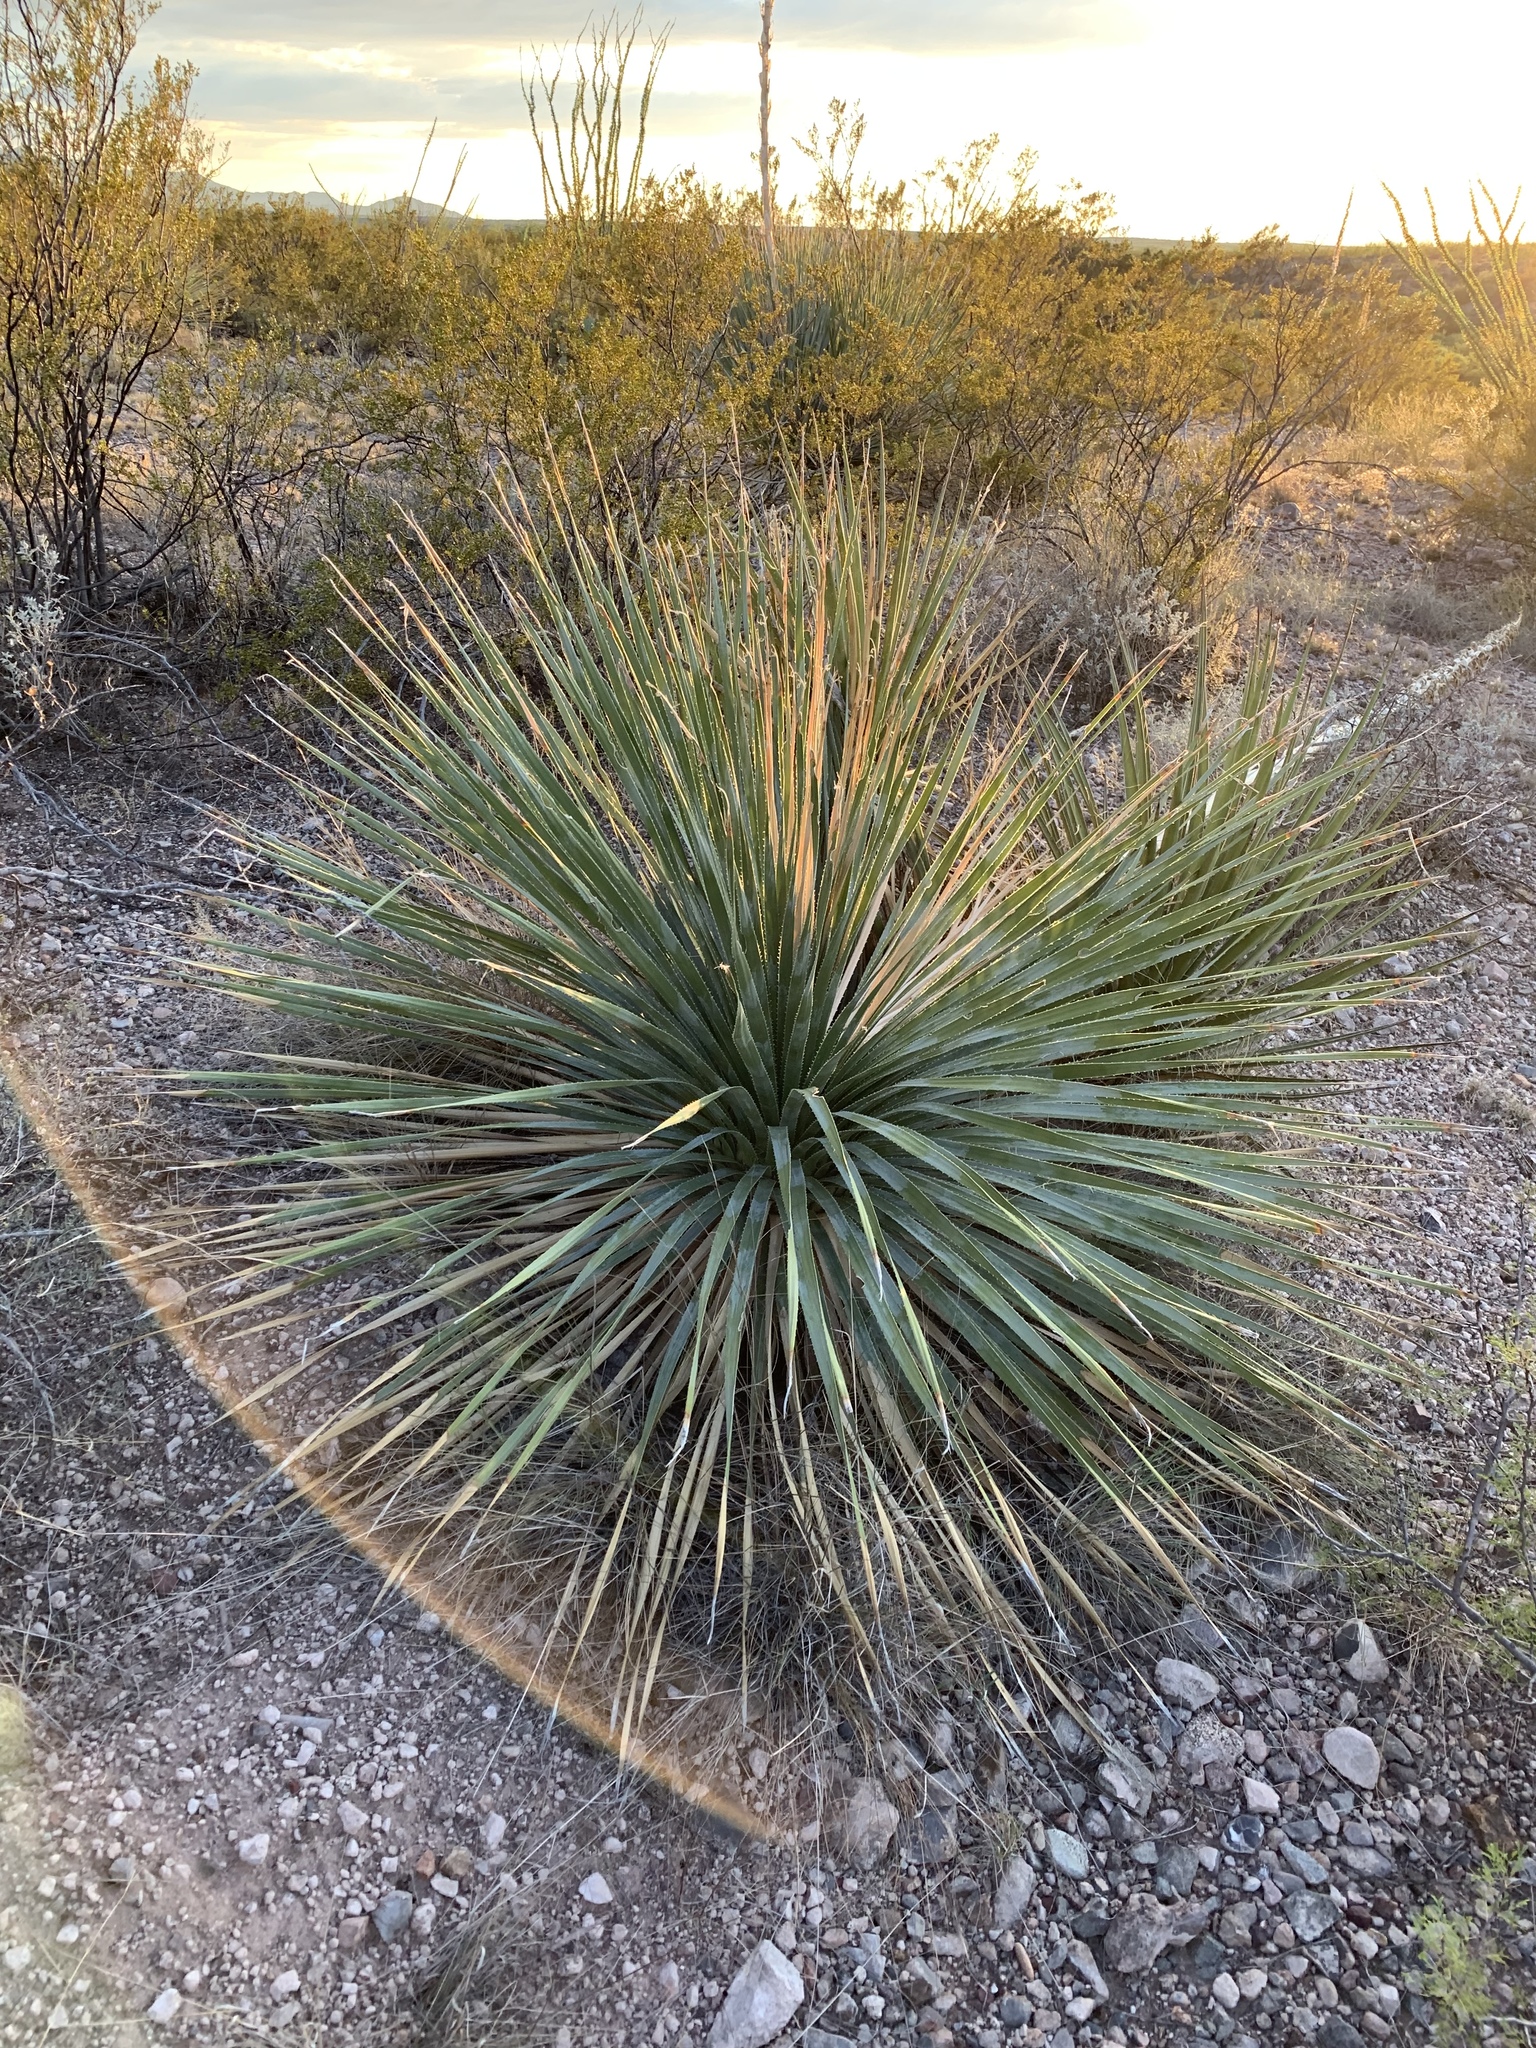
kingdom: Plantae
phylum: Tracheophyta
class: Liliopsida
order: Asparagales
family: Asparagaceae
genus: Dasylirion
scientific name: Dasylirion wheeleri
